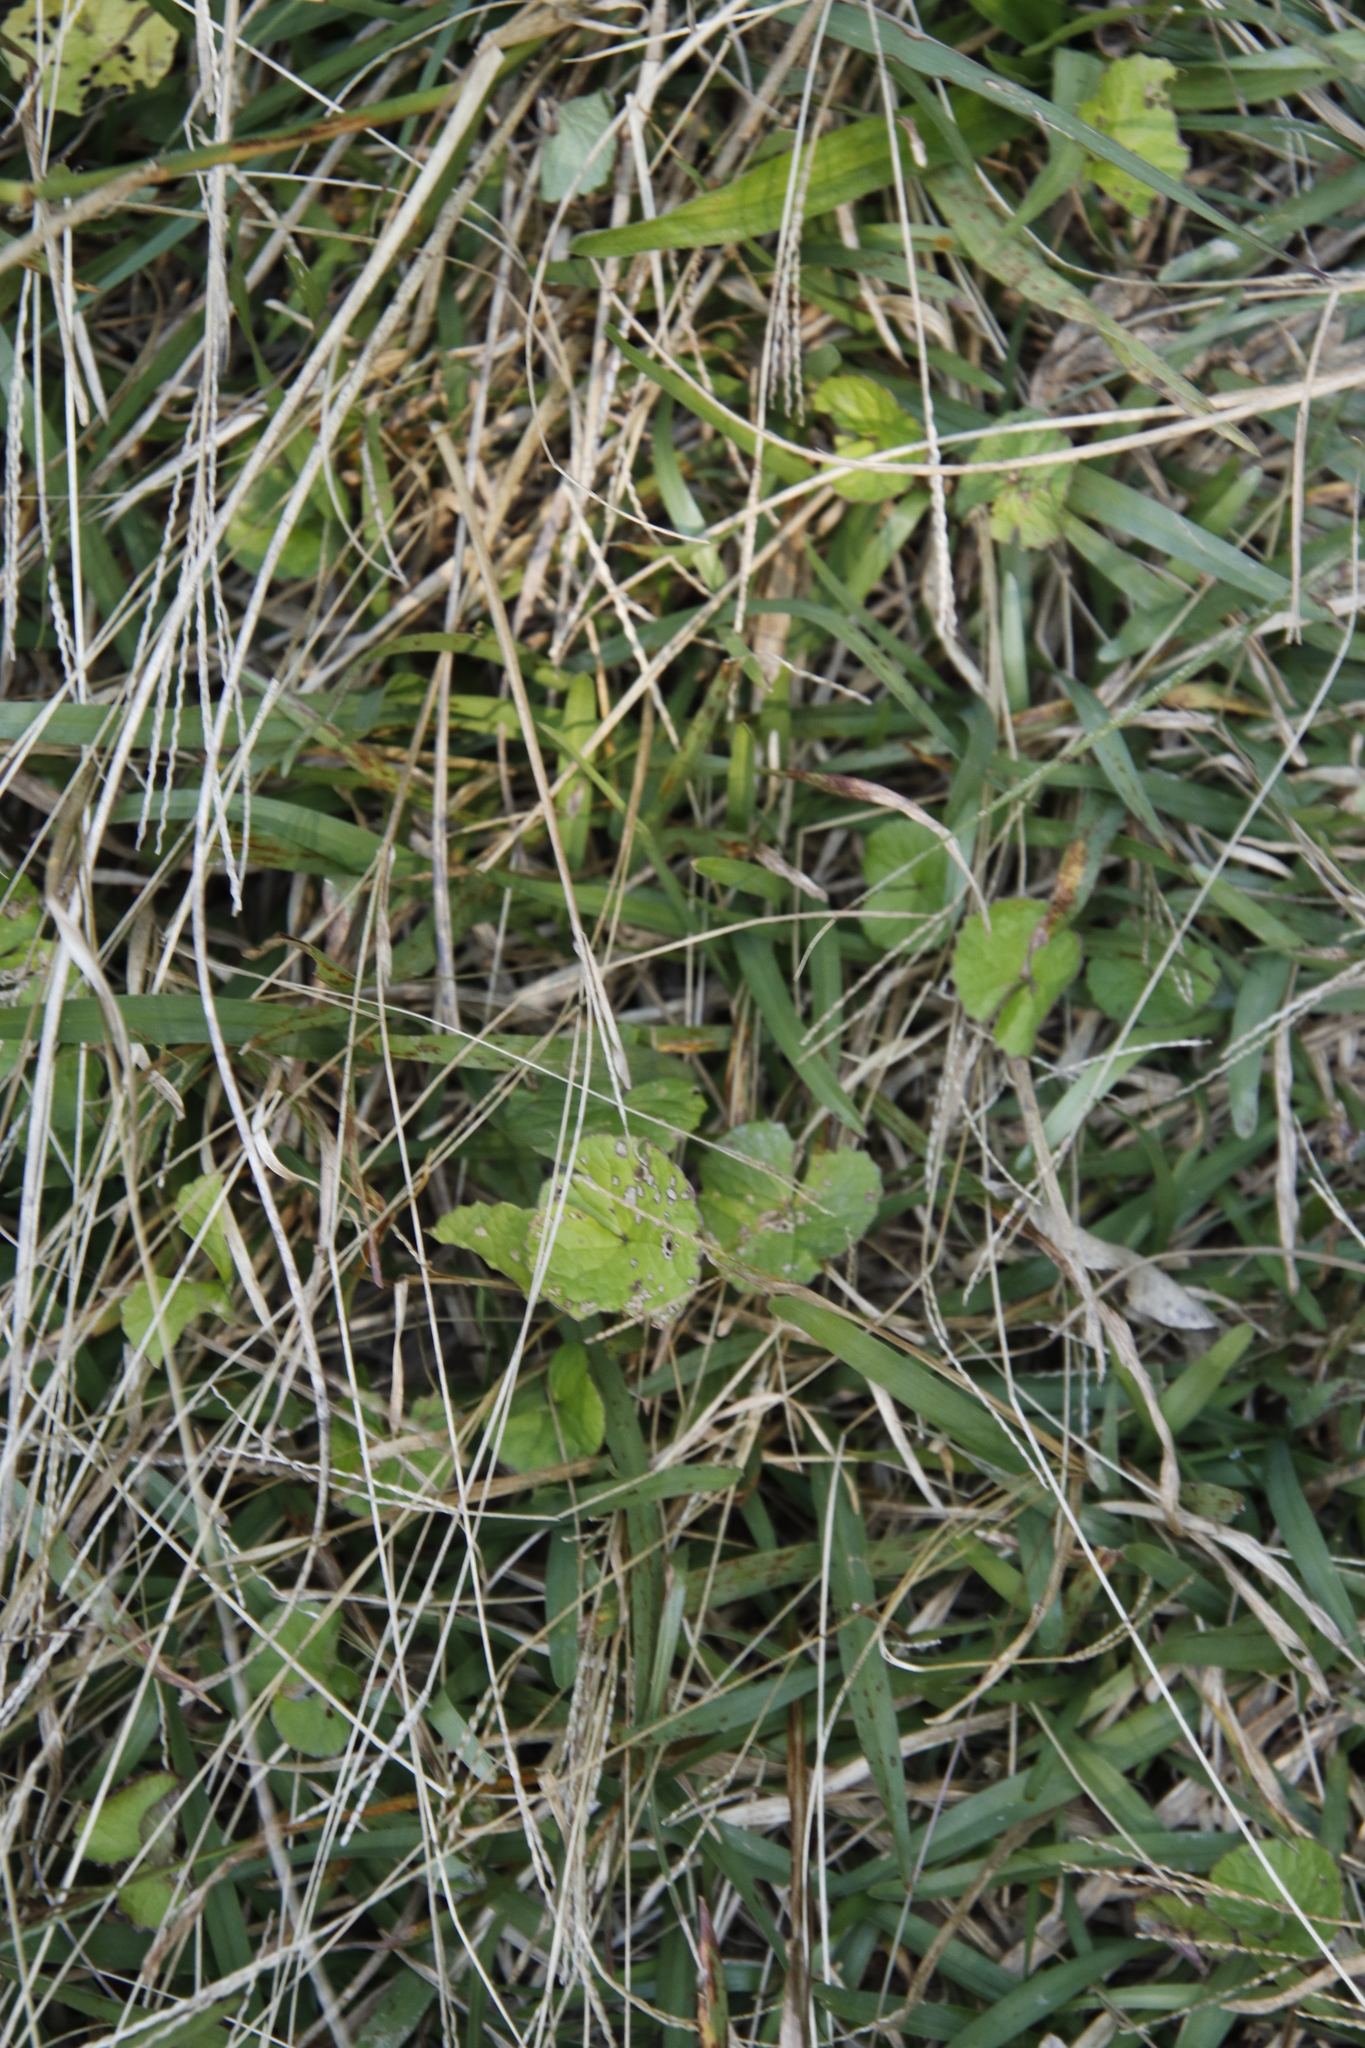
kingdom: Plantae
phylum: Tracheophyta
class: Magnoliopsida
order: Apiales
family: Apiaceae
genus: Centella
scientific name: Centella asiatica
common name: Spadeleaf
